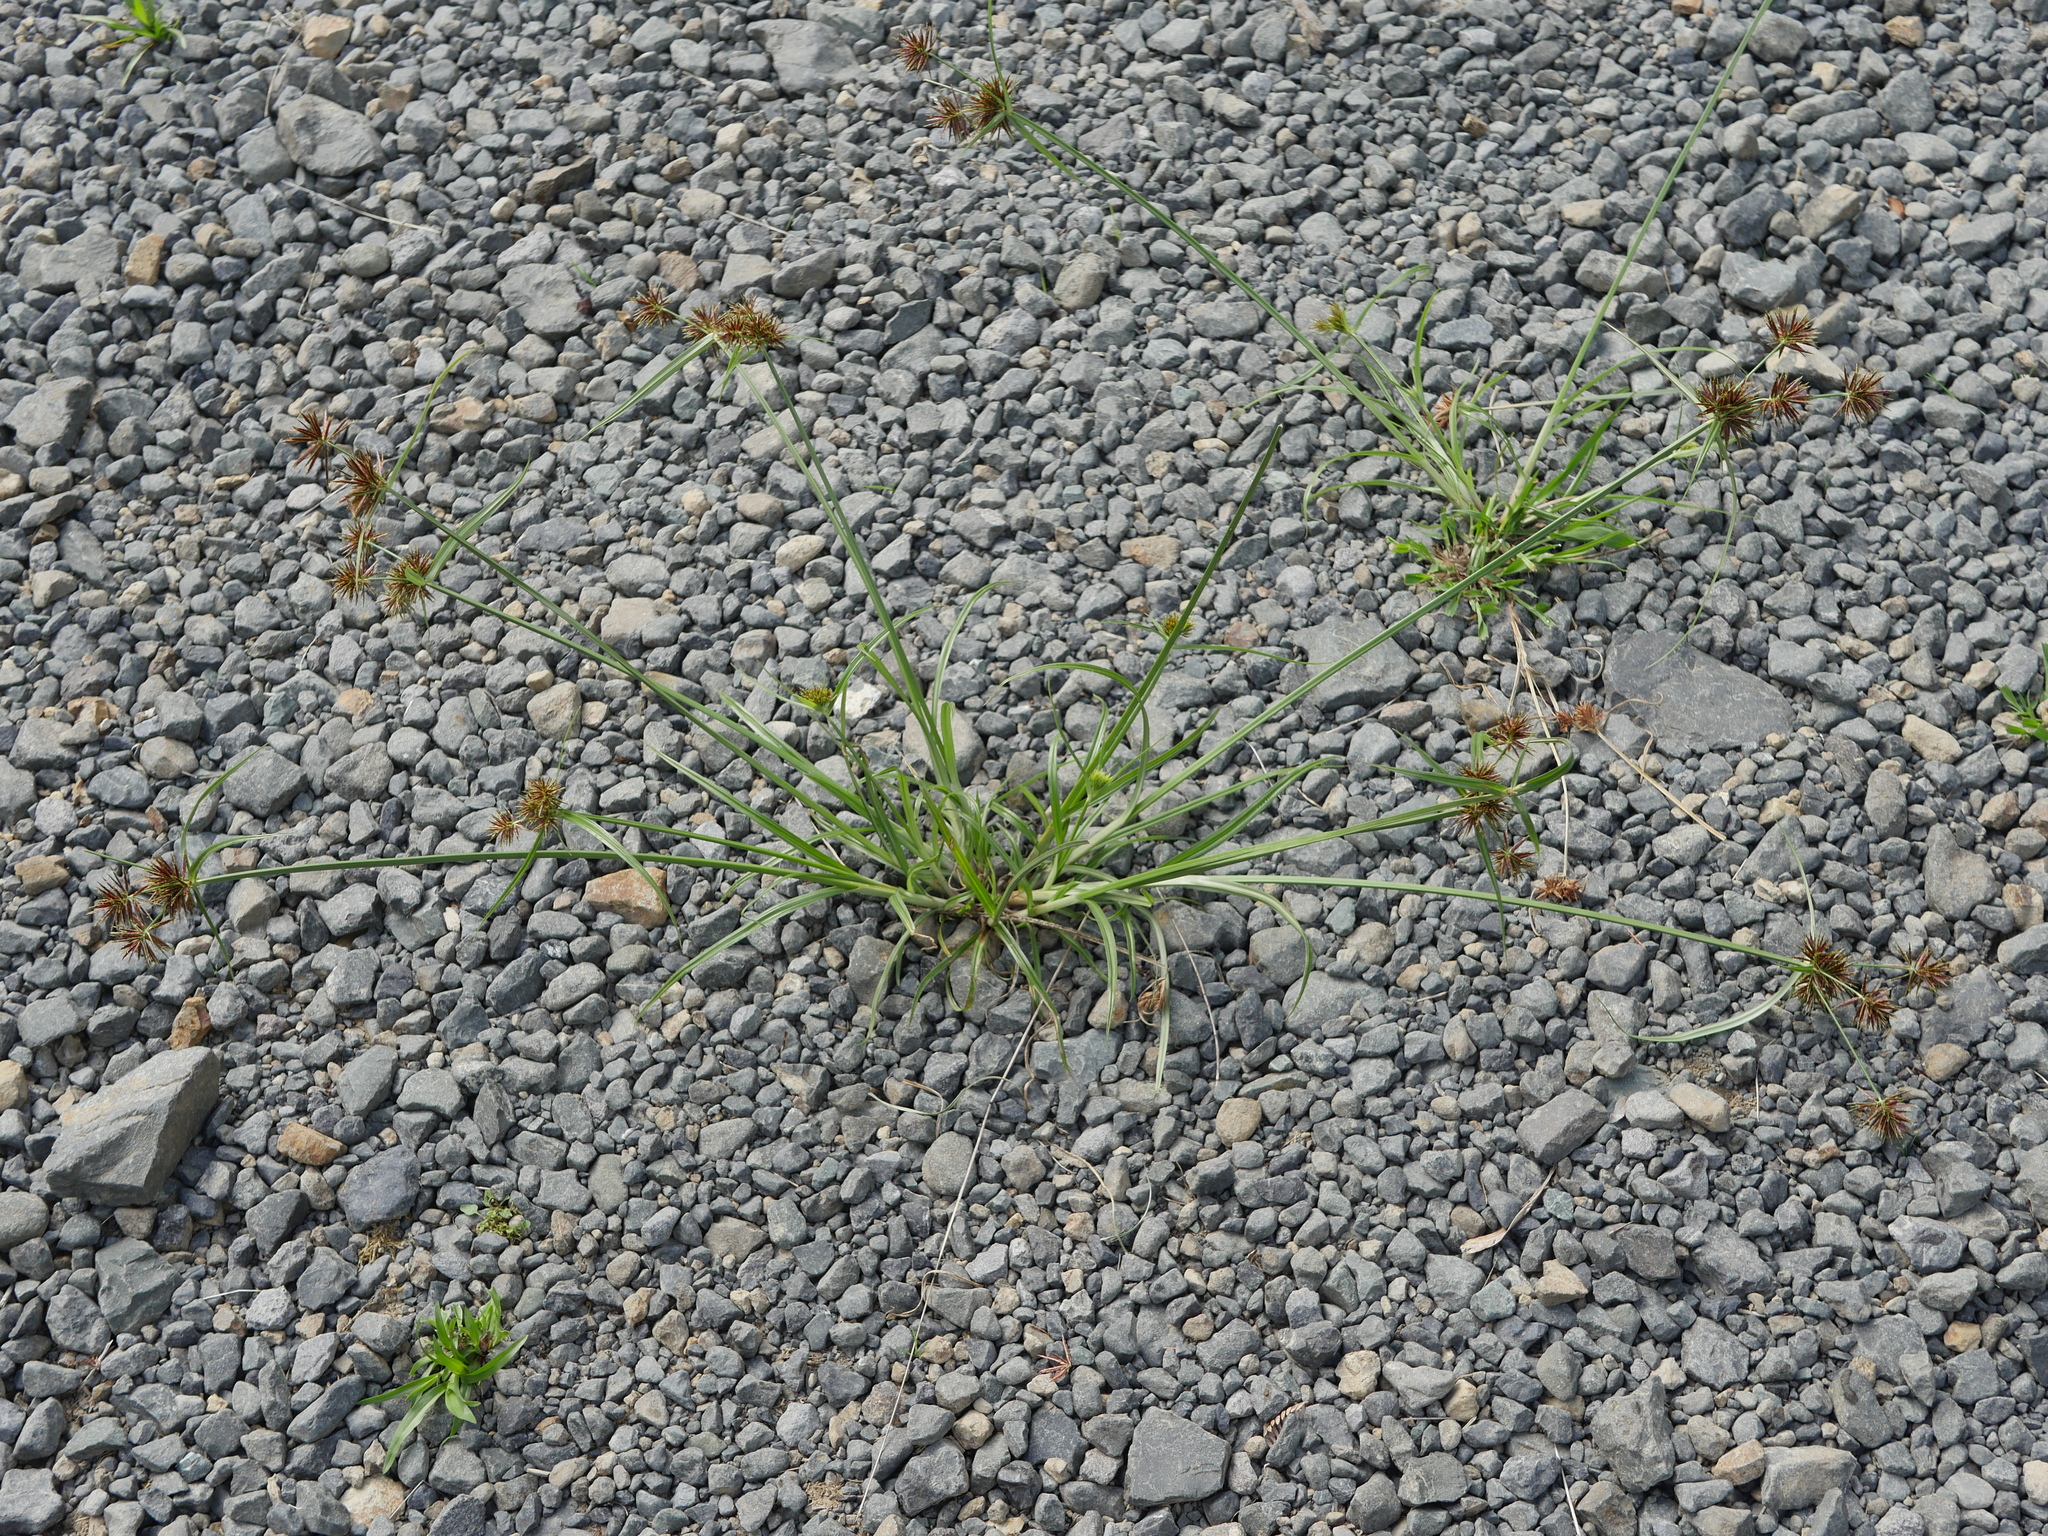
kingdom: Plantae
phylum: Tracheophyta
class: Liliopsida
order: Poales
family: Cyperaceae
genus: Cyperus
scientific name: Cyperus congestus
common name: Dense flat sedge
